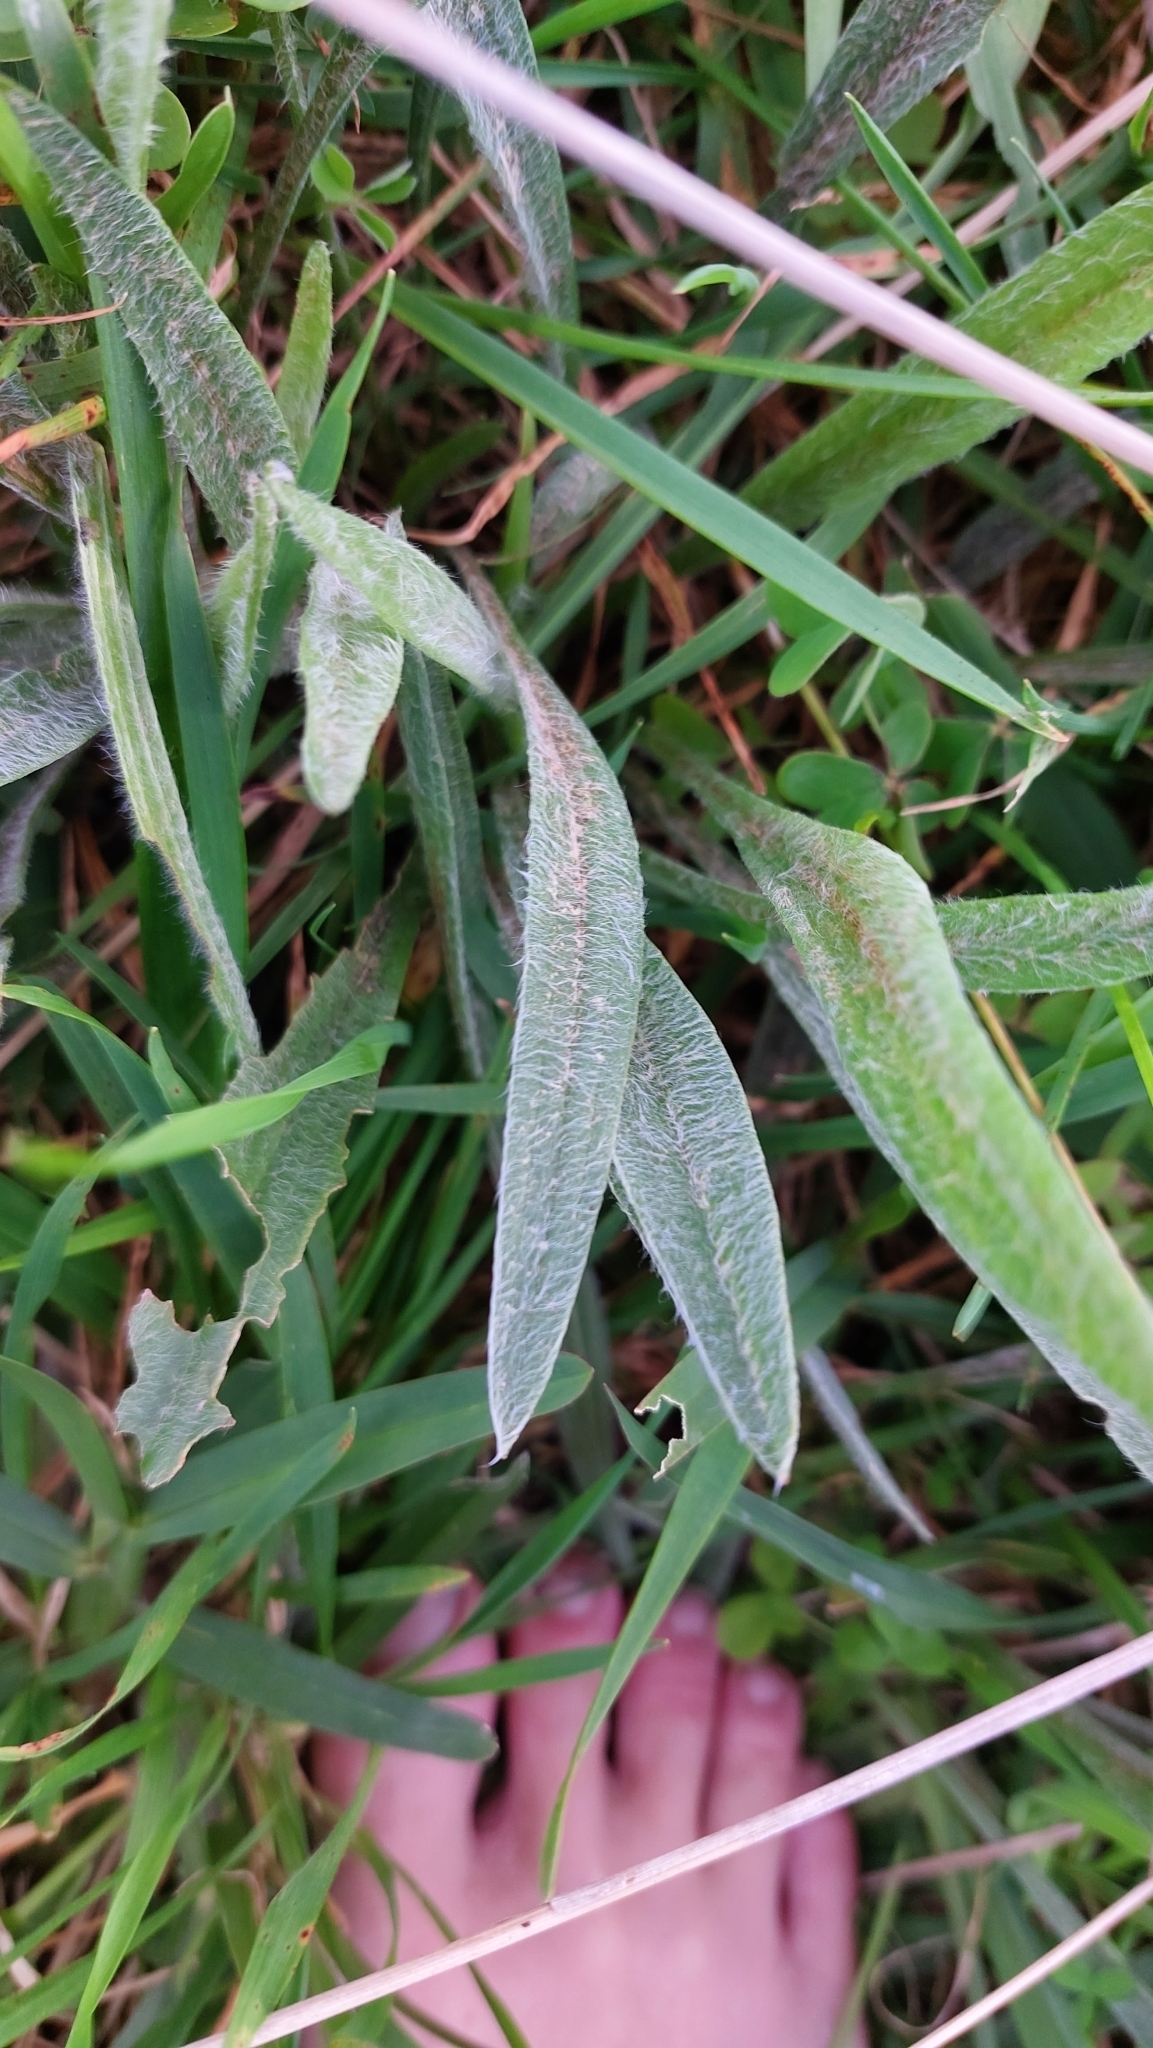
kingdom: Plantae
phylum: Tracheophyta
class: Magnoliopsida
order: Lamiales
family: Plantaginaceae
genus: Plantago
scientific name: Plantago lanceolata
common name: Ribwort plantain
